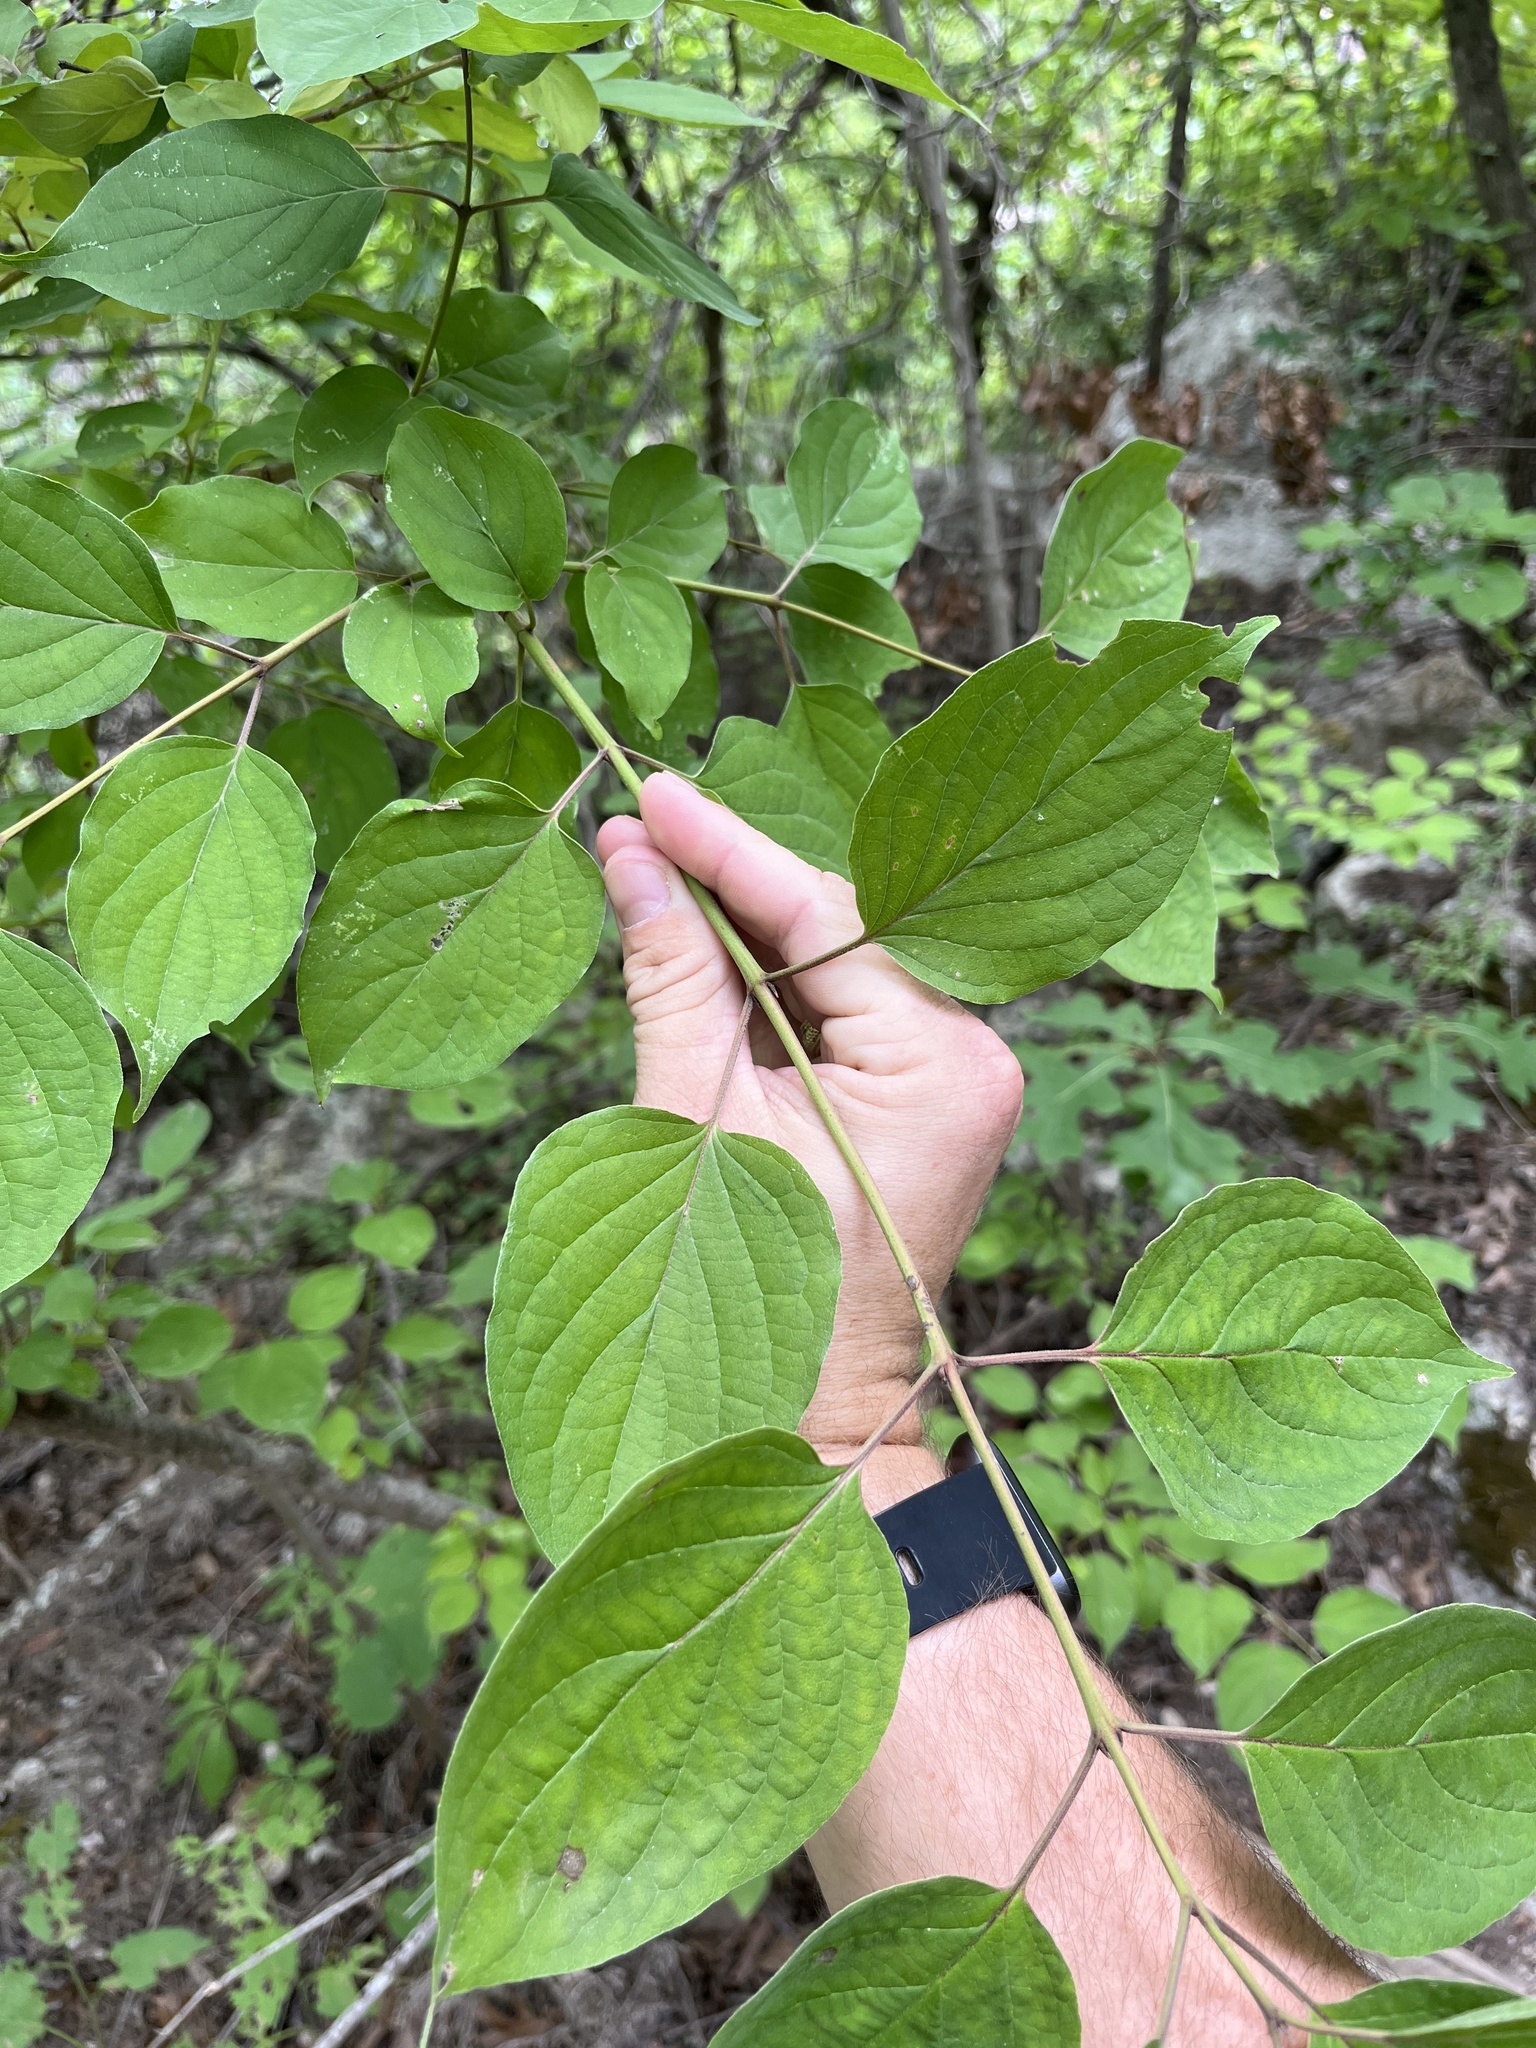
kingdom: Plantae
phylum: Tracheophyta
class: Magnoliopsida
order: Cornales
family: Cornaceae
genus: Cornus
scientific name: Cornus drummondii
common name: Rough-leaf dogwood
